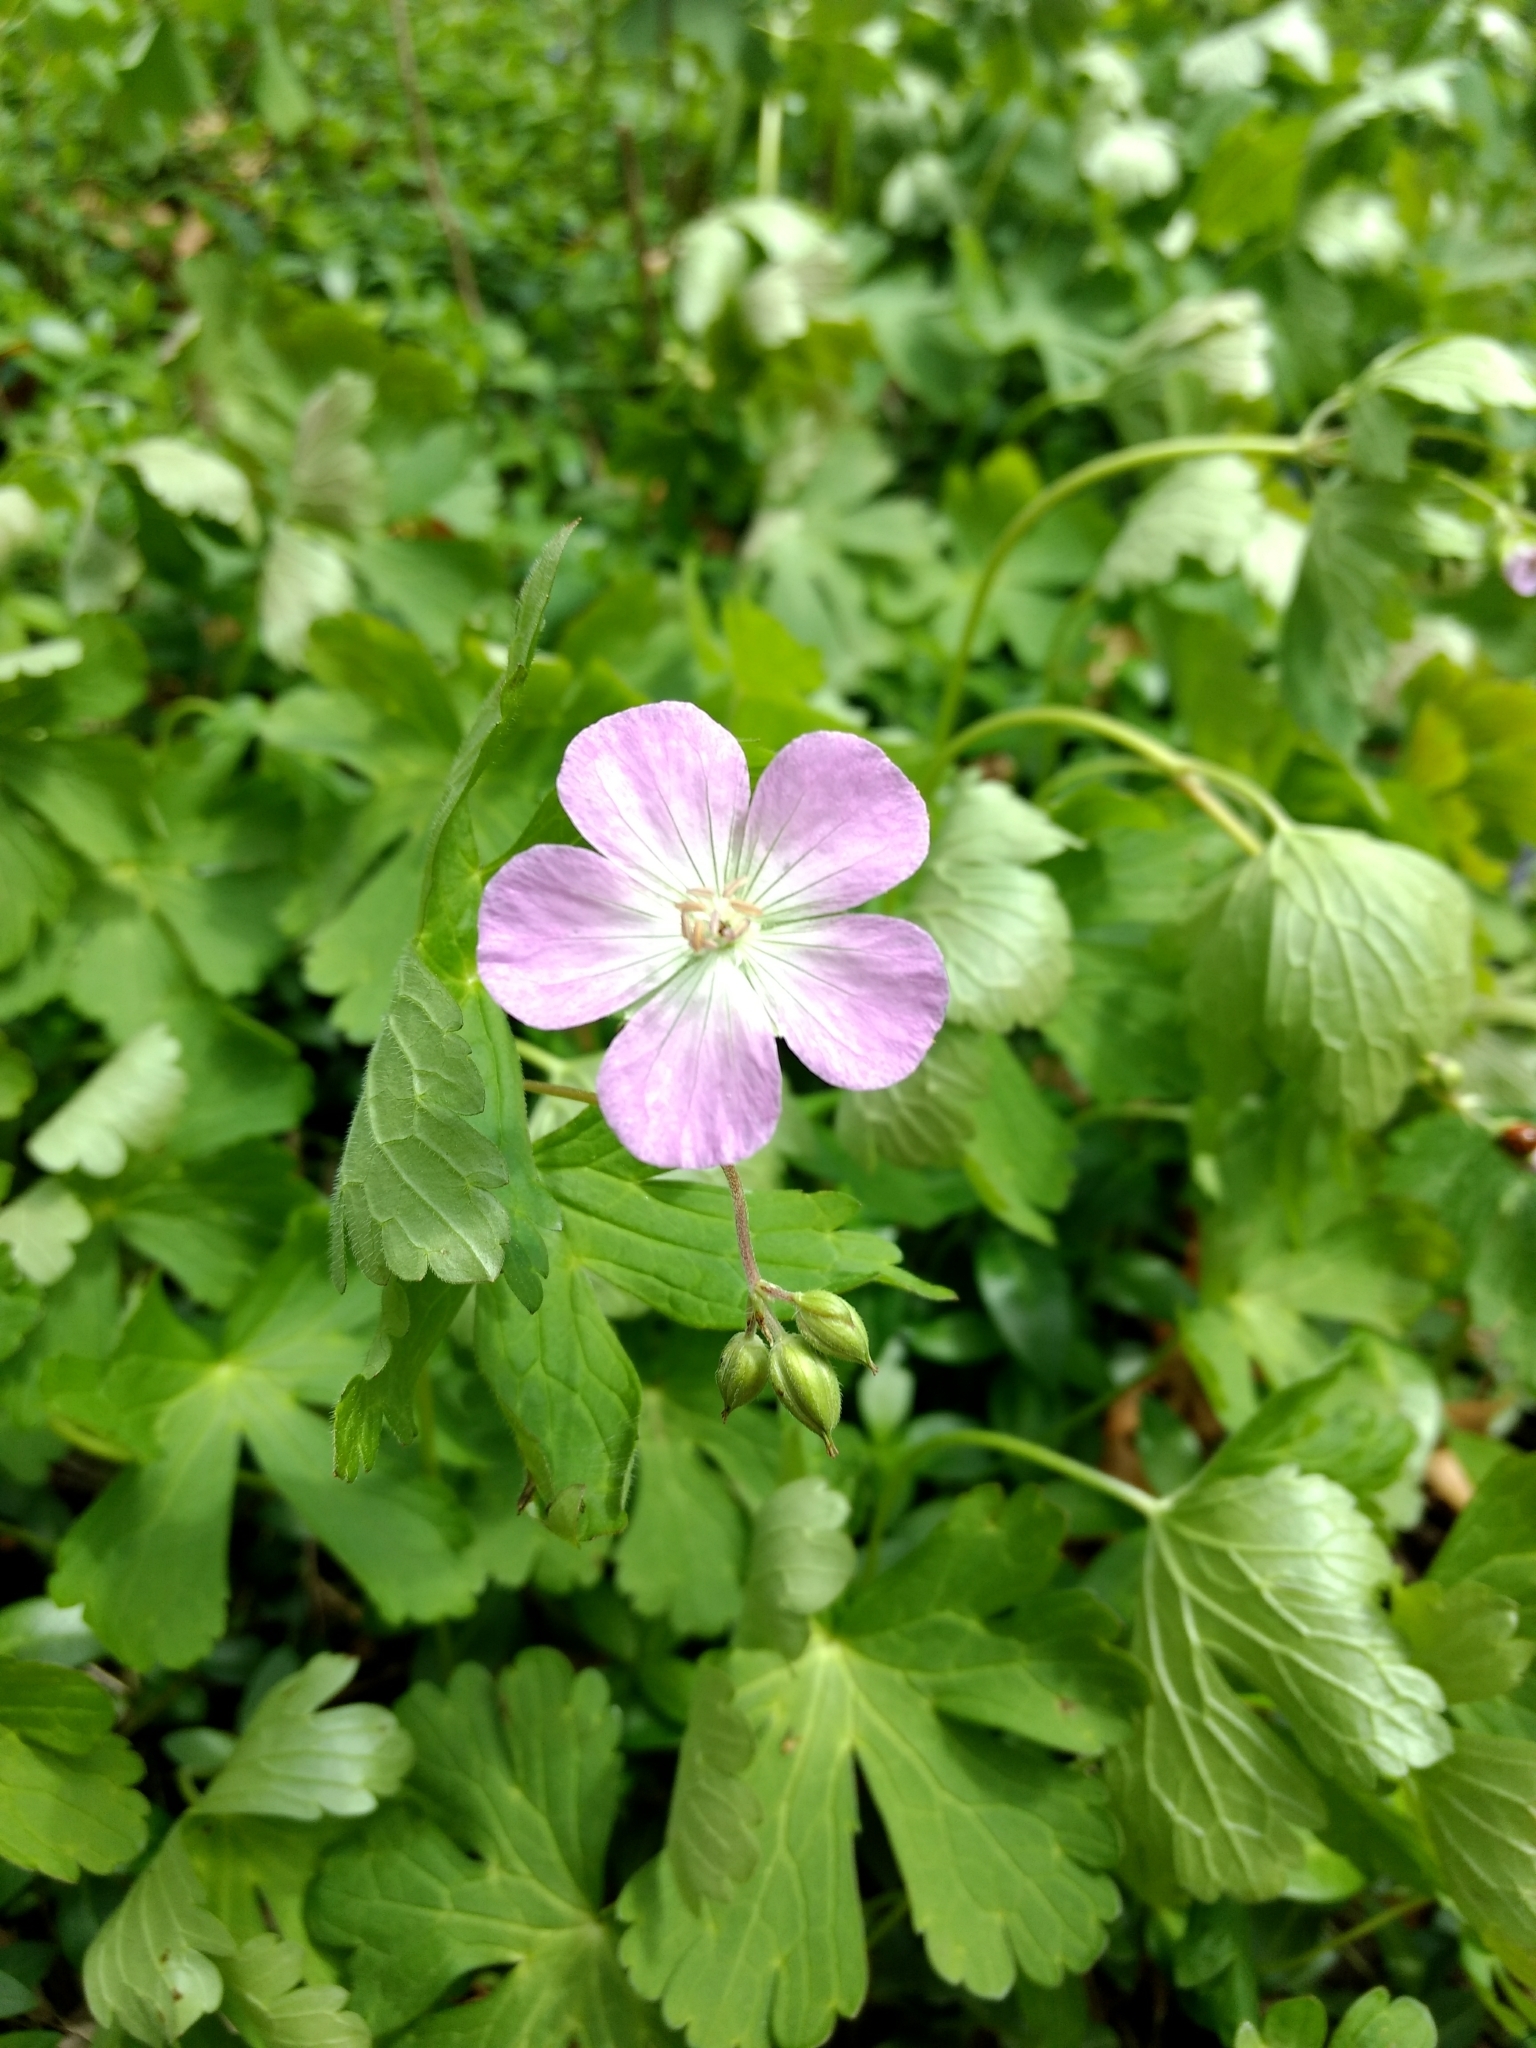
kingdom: Plantae
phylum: Tracheophyta
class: Magnoliopsida
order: Geraniales
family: Geraniaceae
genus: Geranium
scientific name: Geranium maculatum
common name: Spotted geranium
